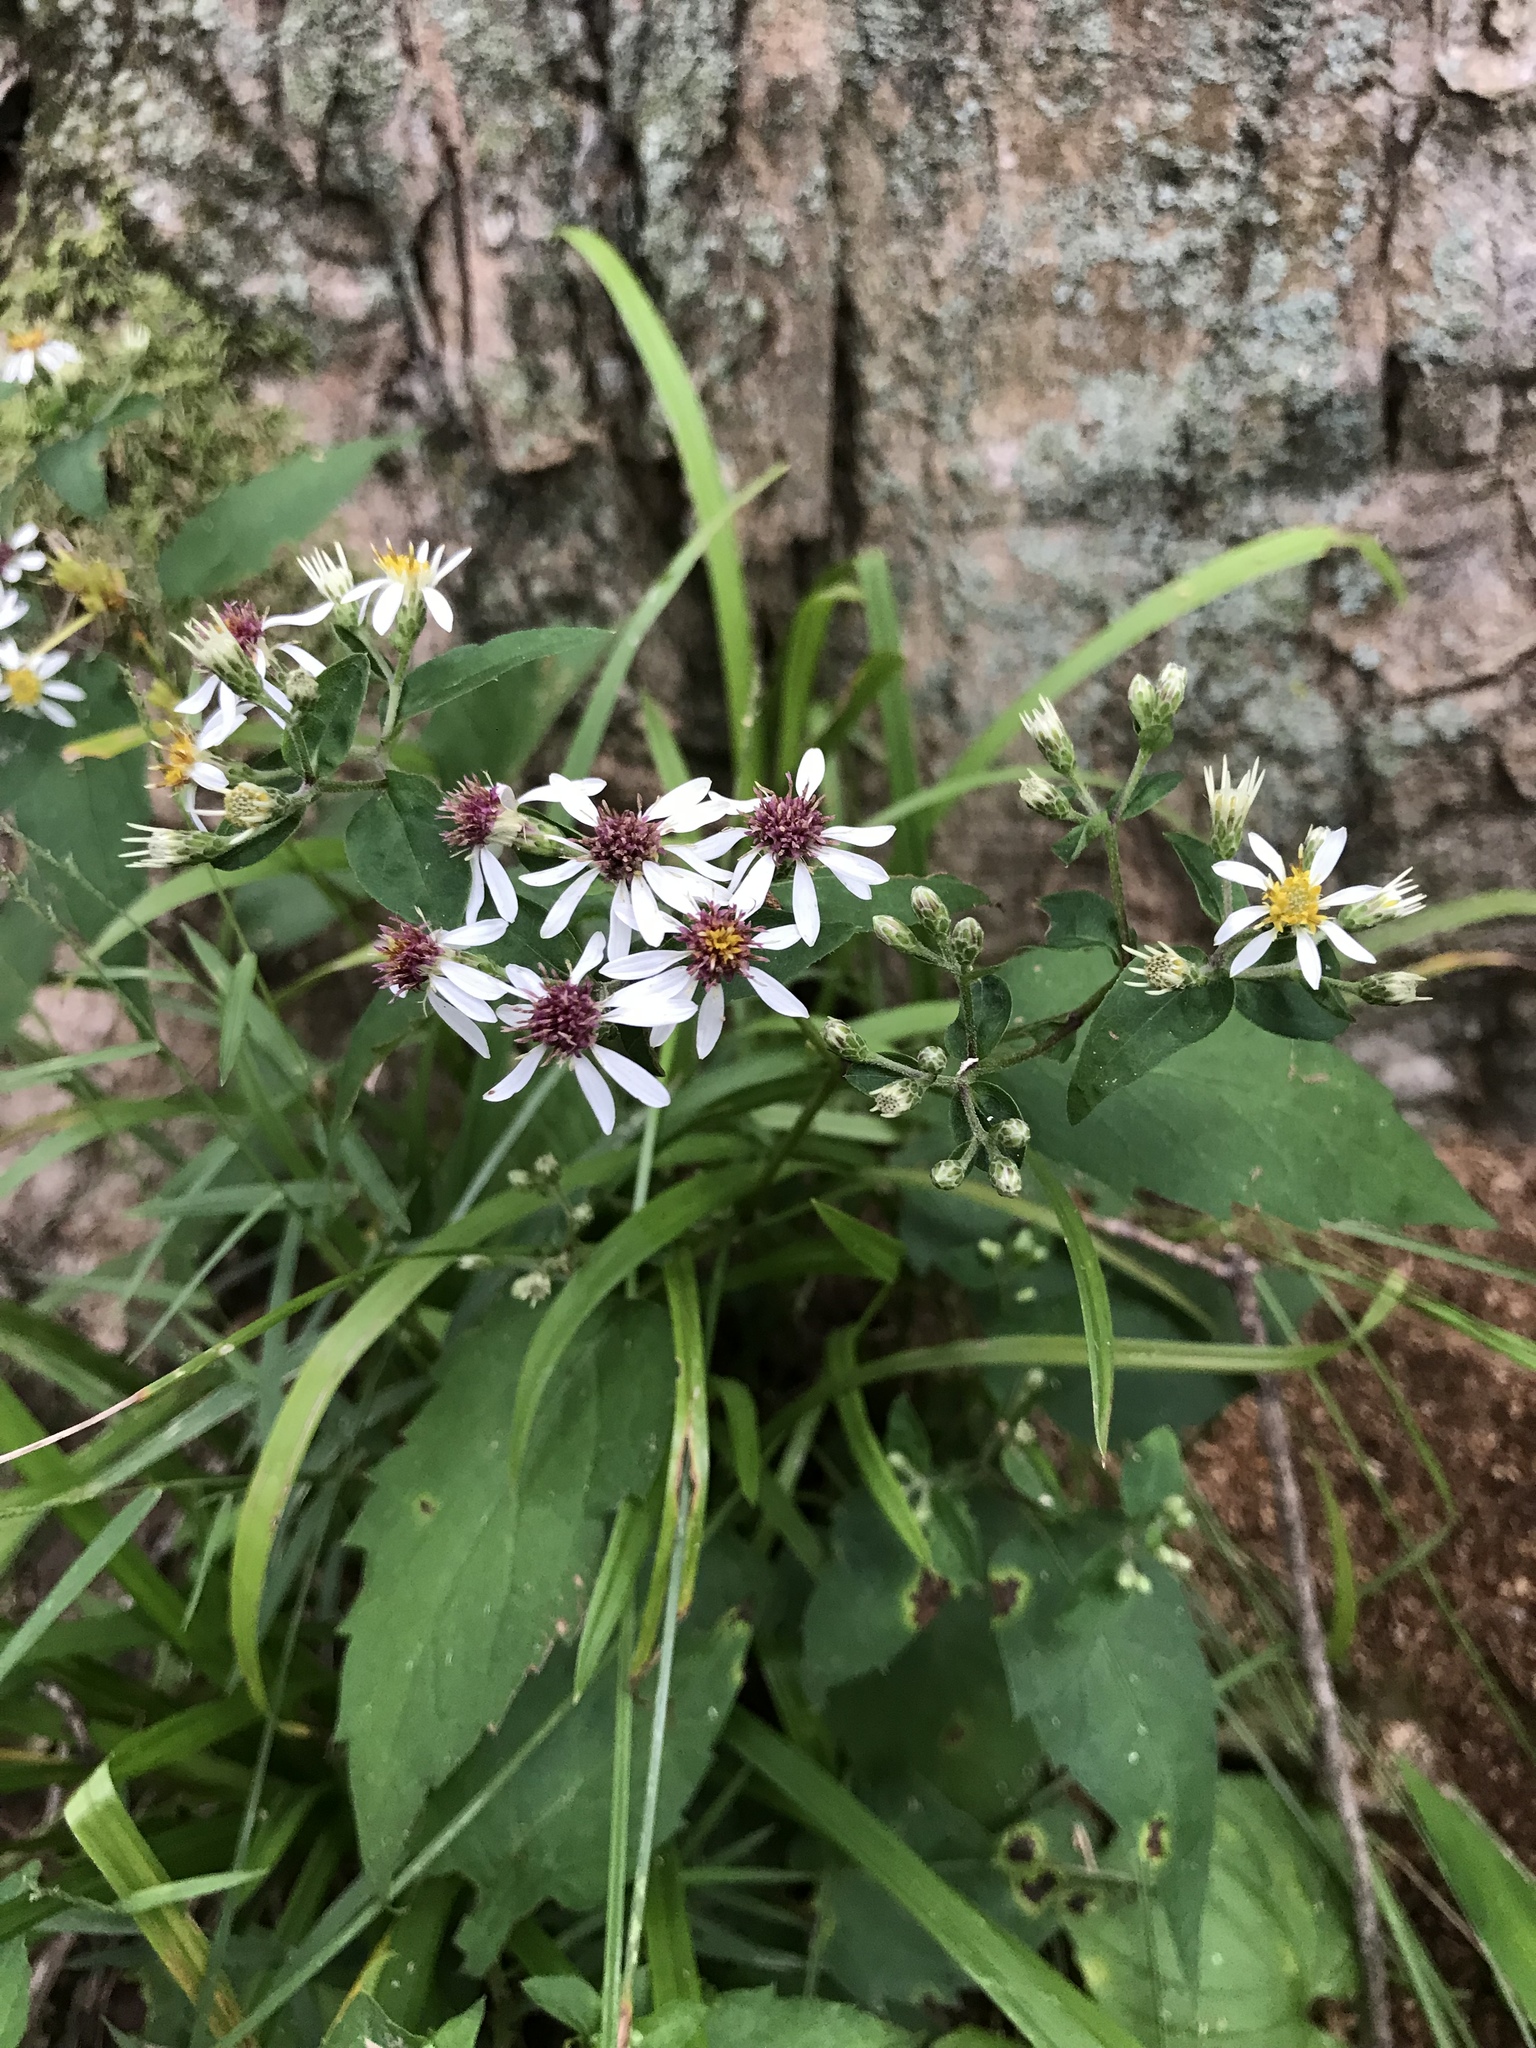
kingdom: Plantae
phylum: Tracheophyta
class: Magnoliopsida
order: Asterales
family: Asteraceae
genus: Eurybia
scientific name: Eurybia divaricata
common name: White wood aster
